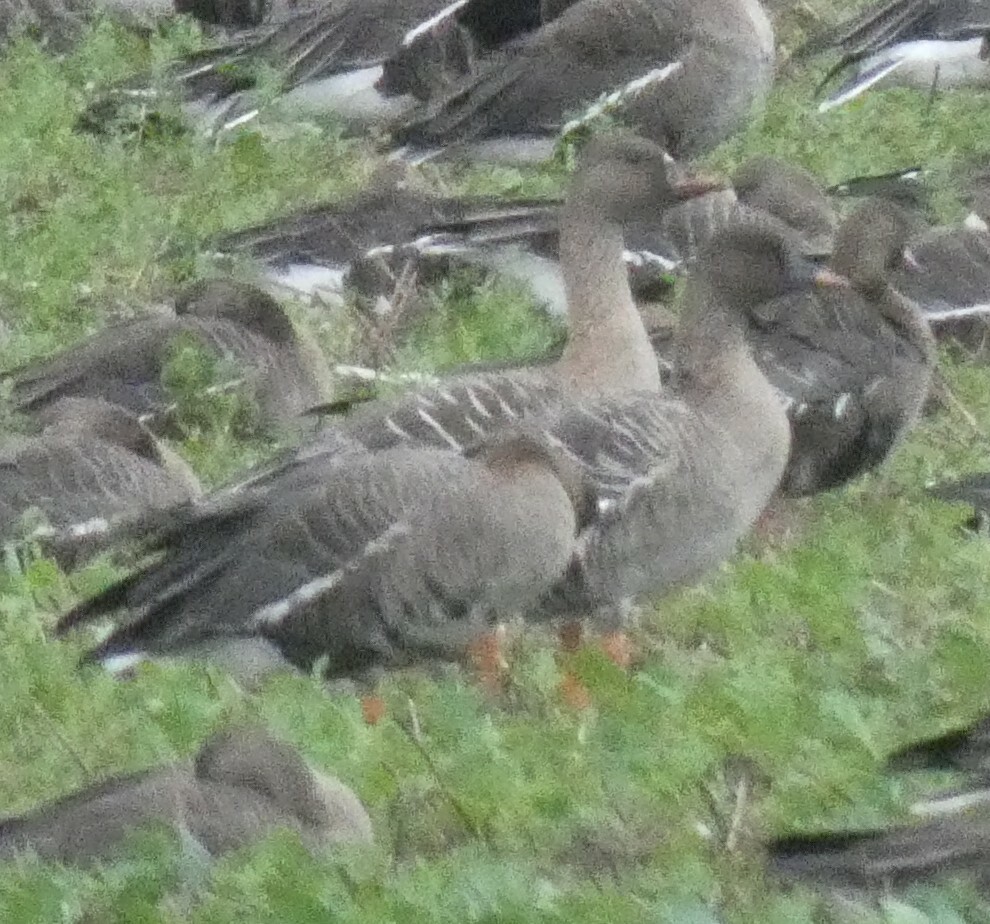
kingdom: Animalia
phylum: Chordata
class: Aves
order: Anseriformes
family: Anatidae
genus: Anser
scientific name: Anser serrirostris
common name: Tundra bean goose
